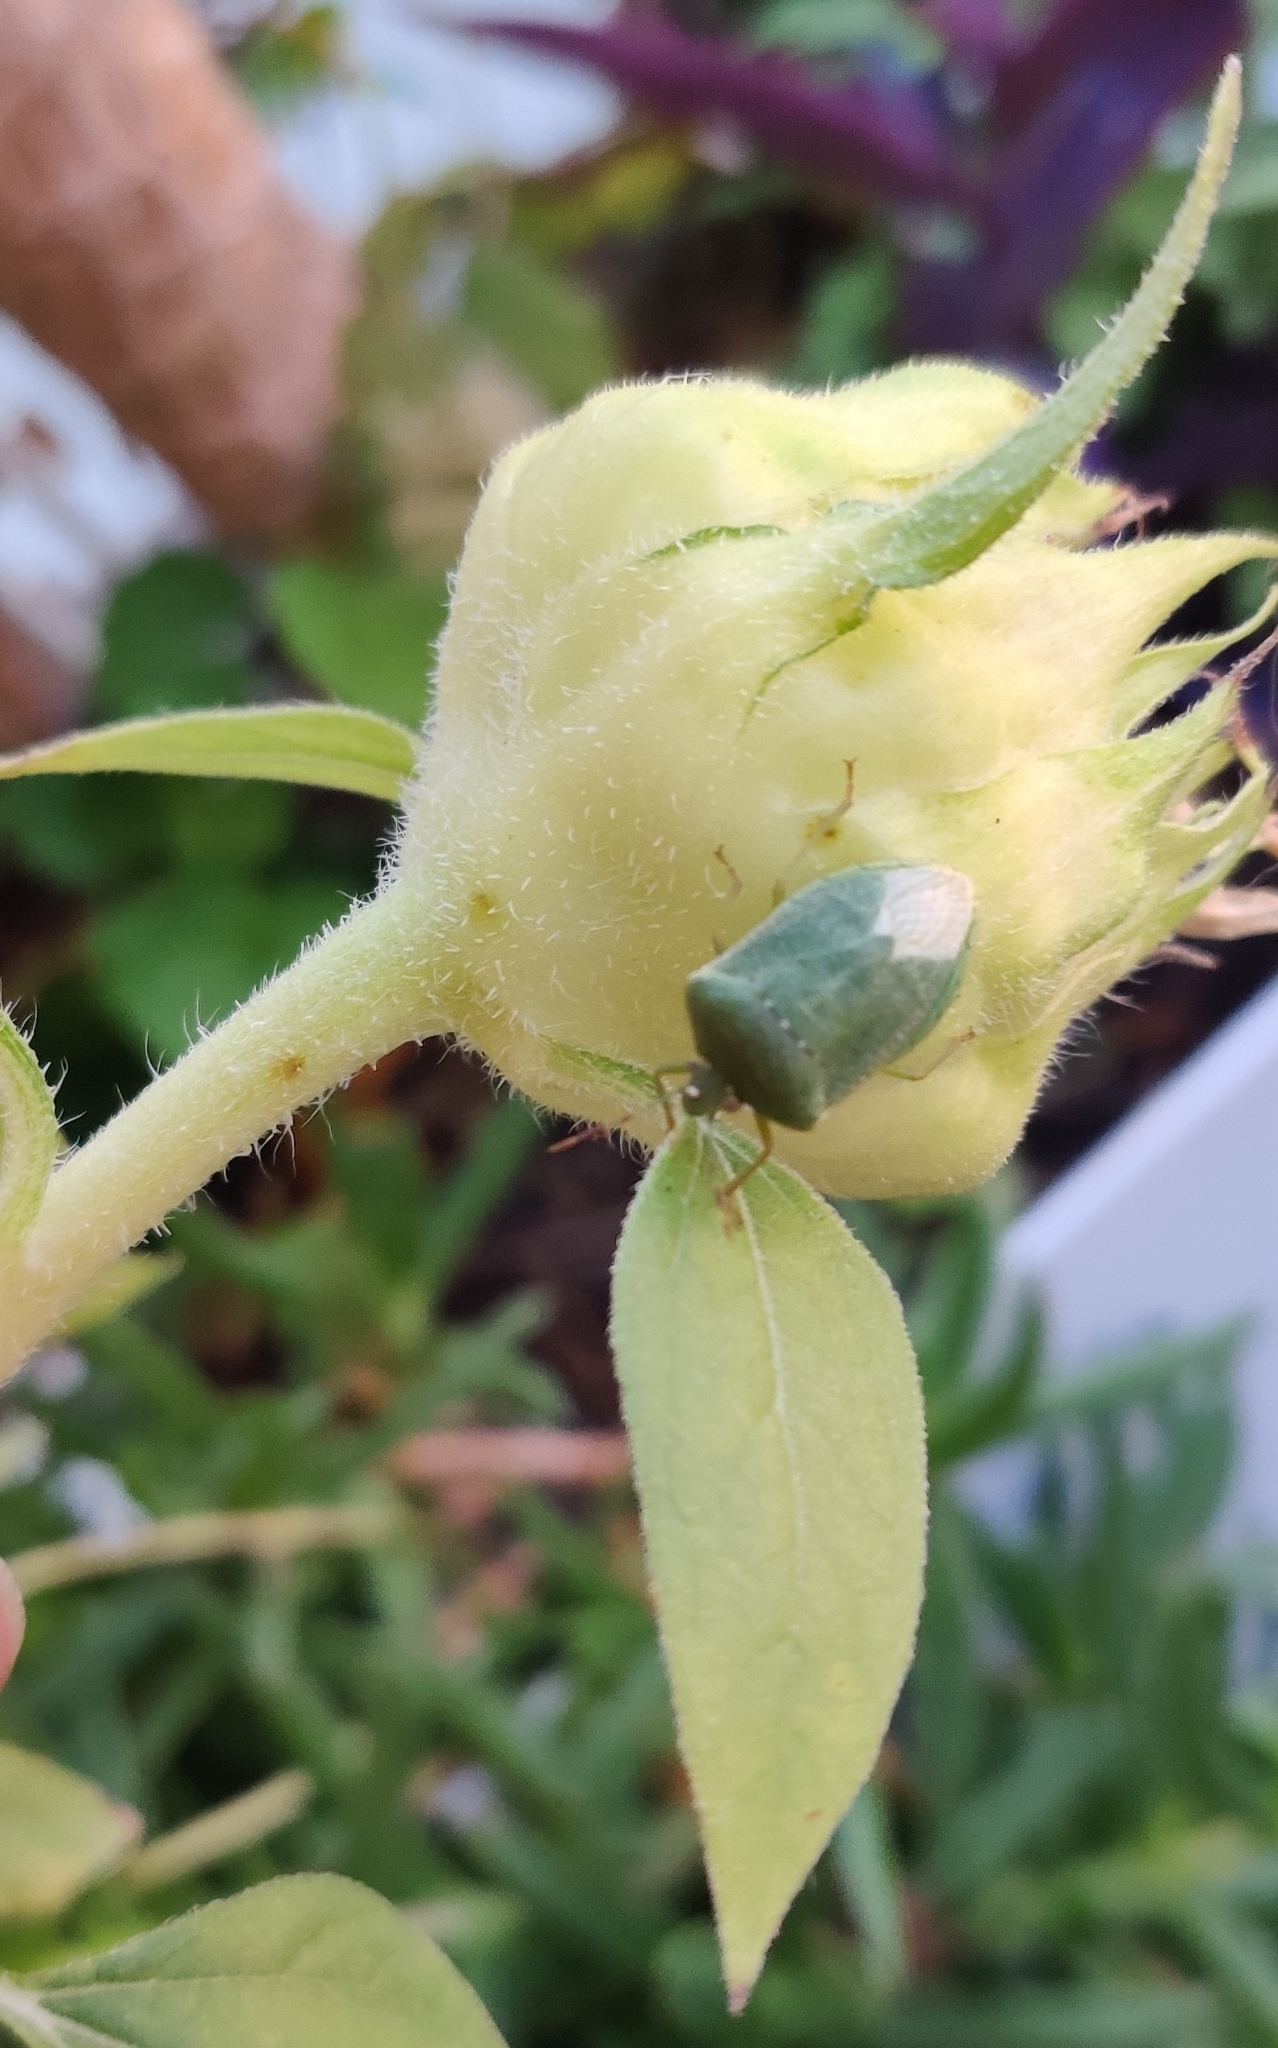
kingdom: Animalia
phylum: Arthropoda
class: Insecta
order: Hemiptera
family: Pentatomidae
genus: Nezara
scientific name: Nezara viridula
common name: Southern green stink bug
